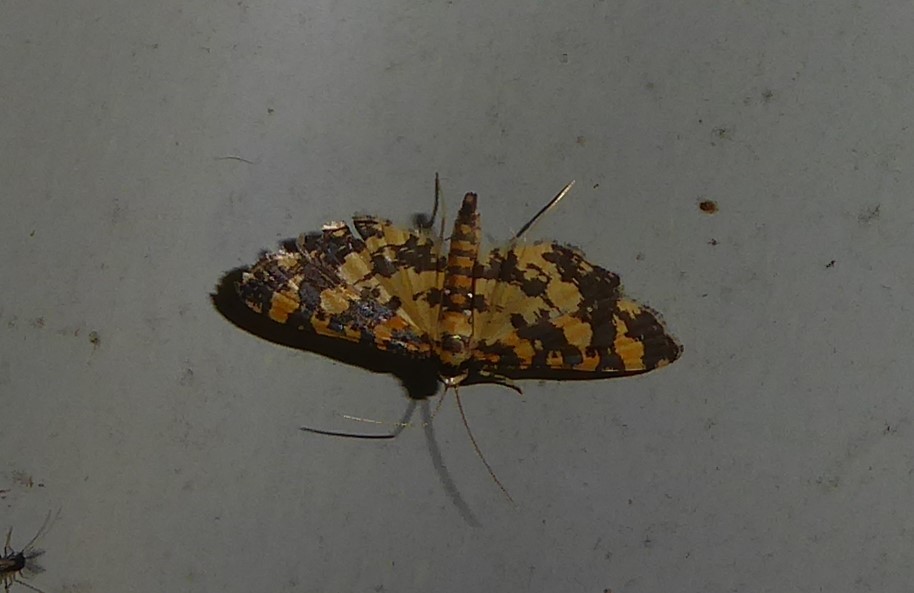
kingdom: Animalia
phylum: Arthropoda
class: Insecta
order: Lepidoptera
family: Crambidae
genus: Eurrhyparodes
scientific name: Eurrhyparodes tricoloralis
